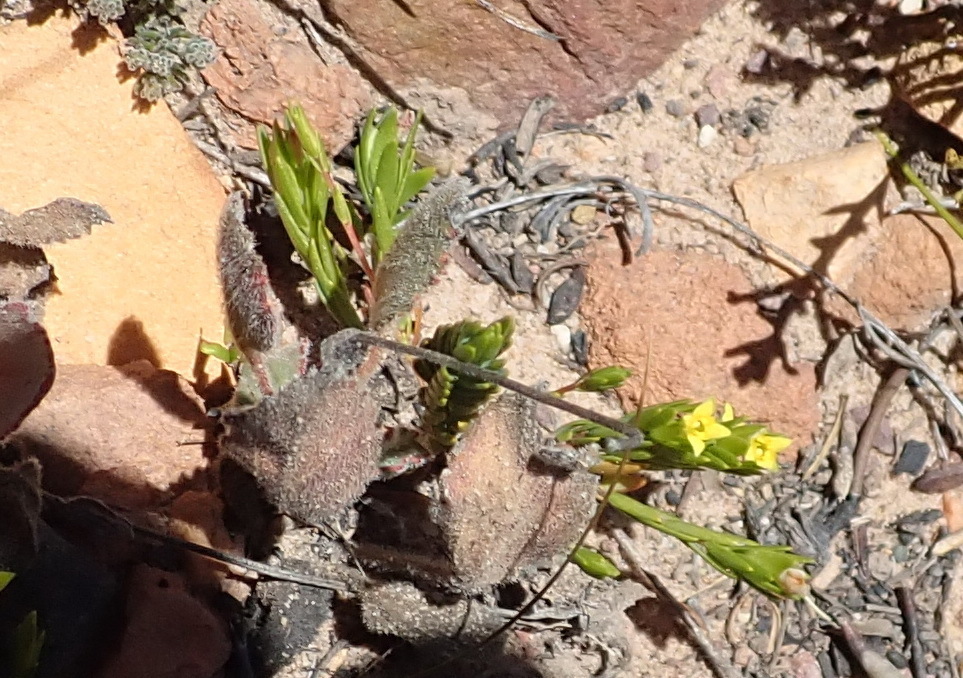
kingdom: Plantae
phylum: Tracheophyta
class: Magnoliopsida
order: Malvales
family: Thymelaeaceae
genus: Gnidia
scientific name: Gnidia juniperifolia
